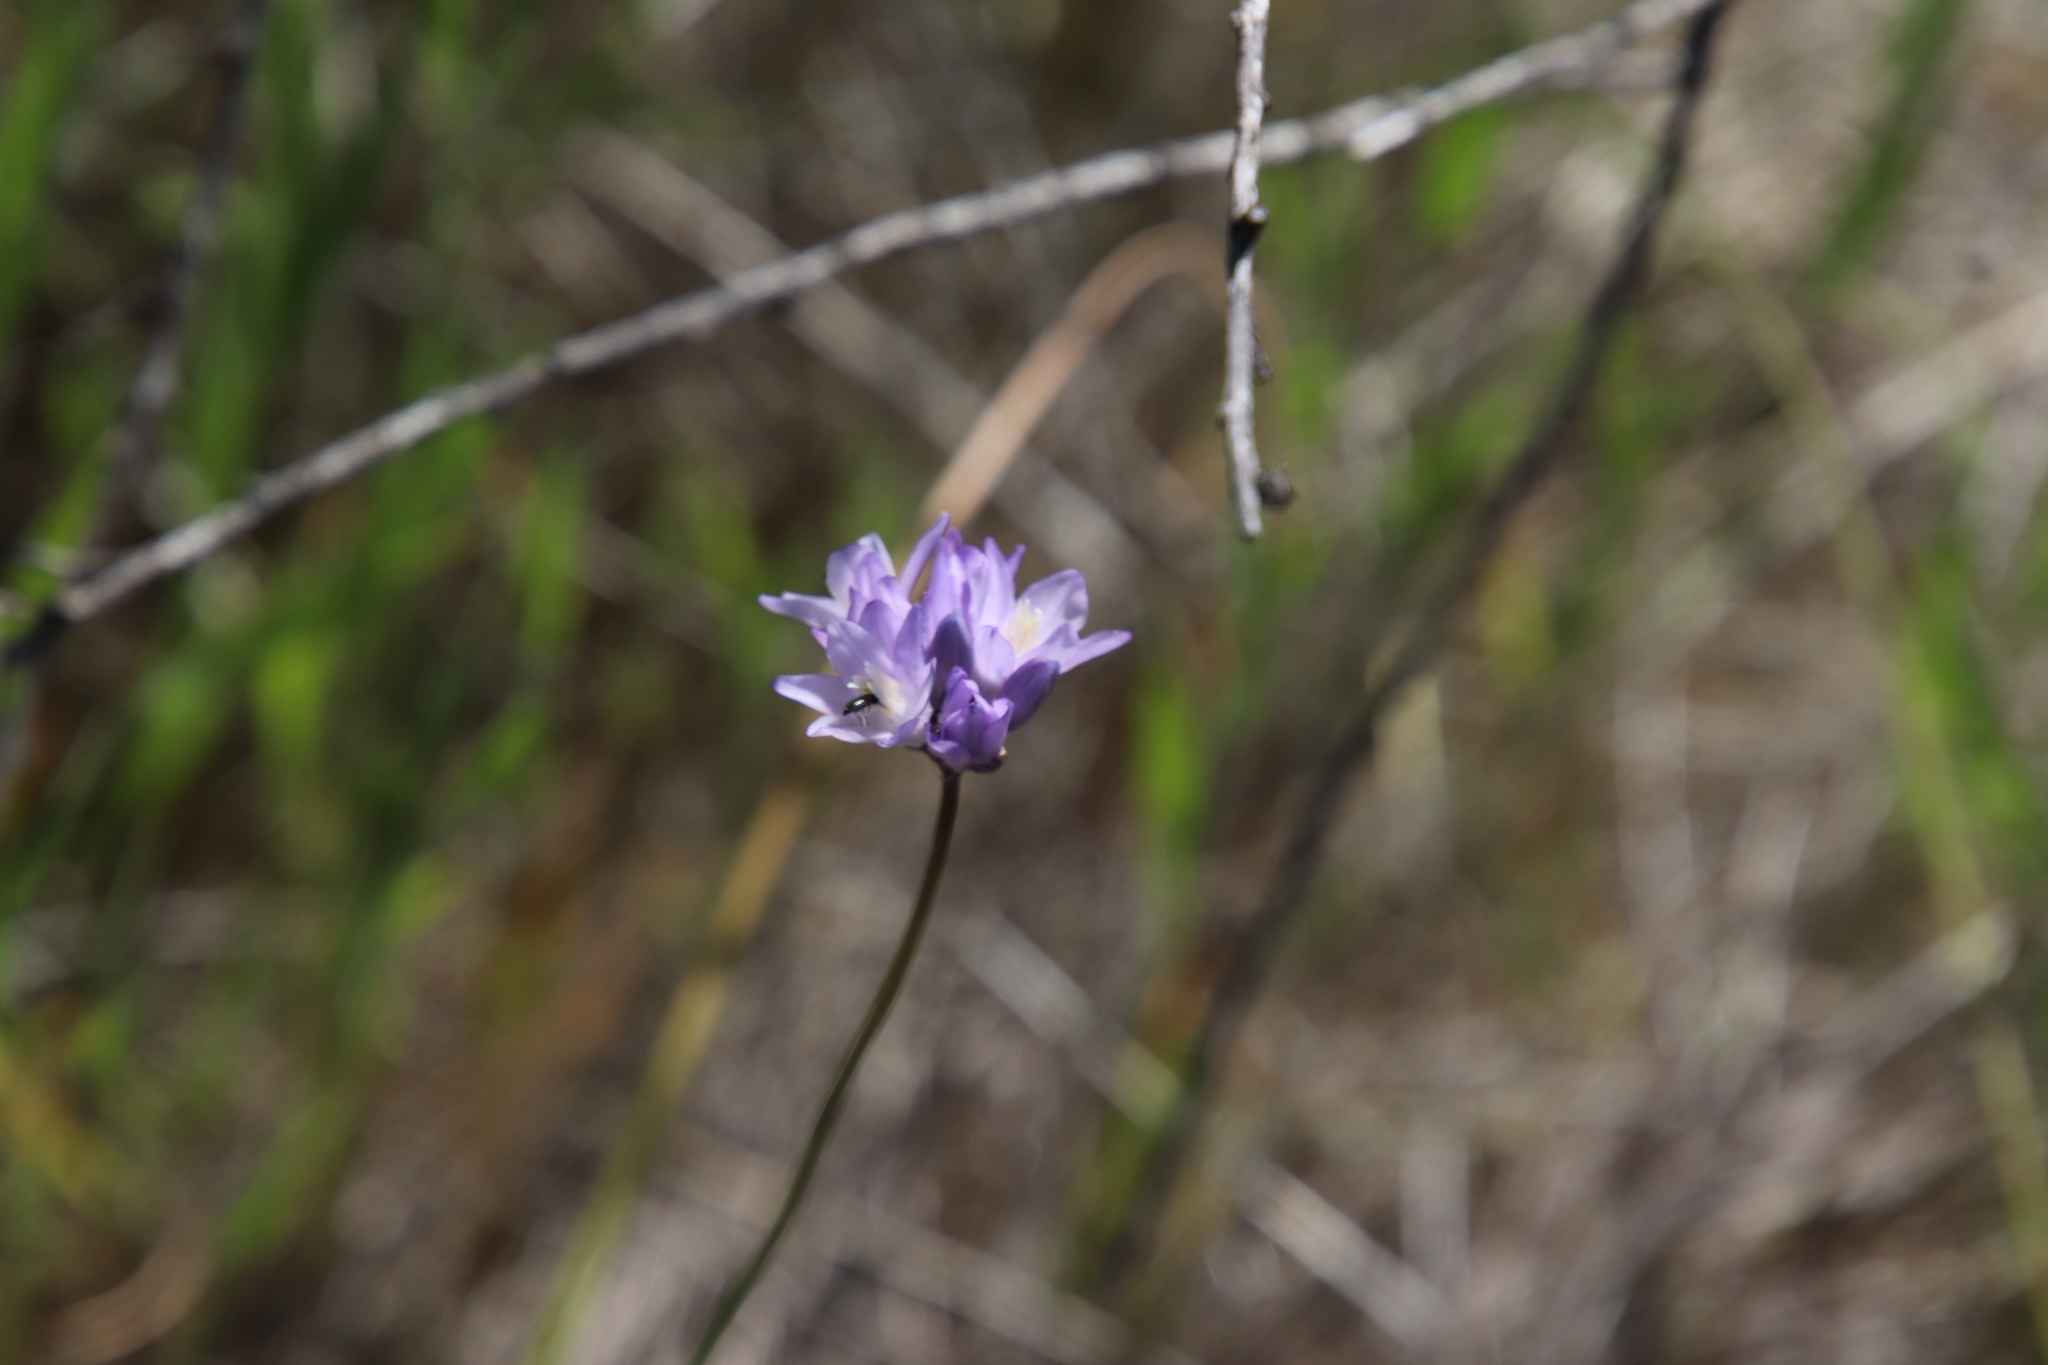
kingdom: Plantae
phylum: Tracheophyta
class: Liliopsida
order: Asparagales
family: Asparagaceae
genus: Dipterostemon
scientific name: Dipterostemon capitatus
